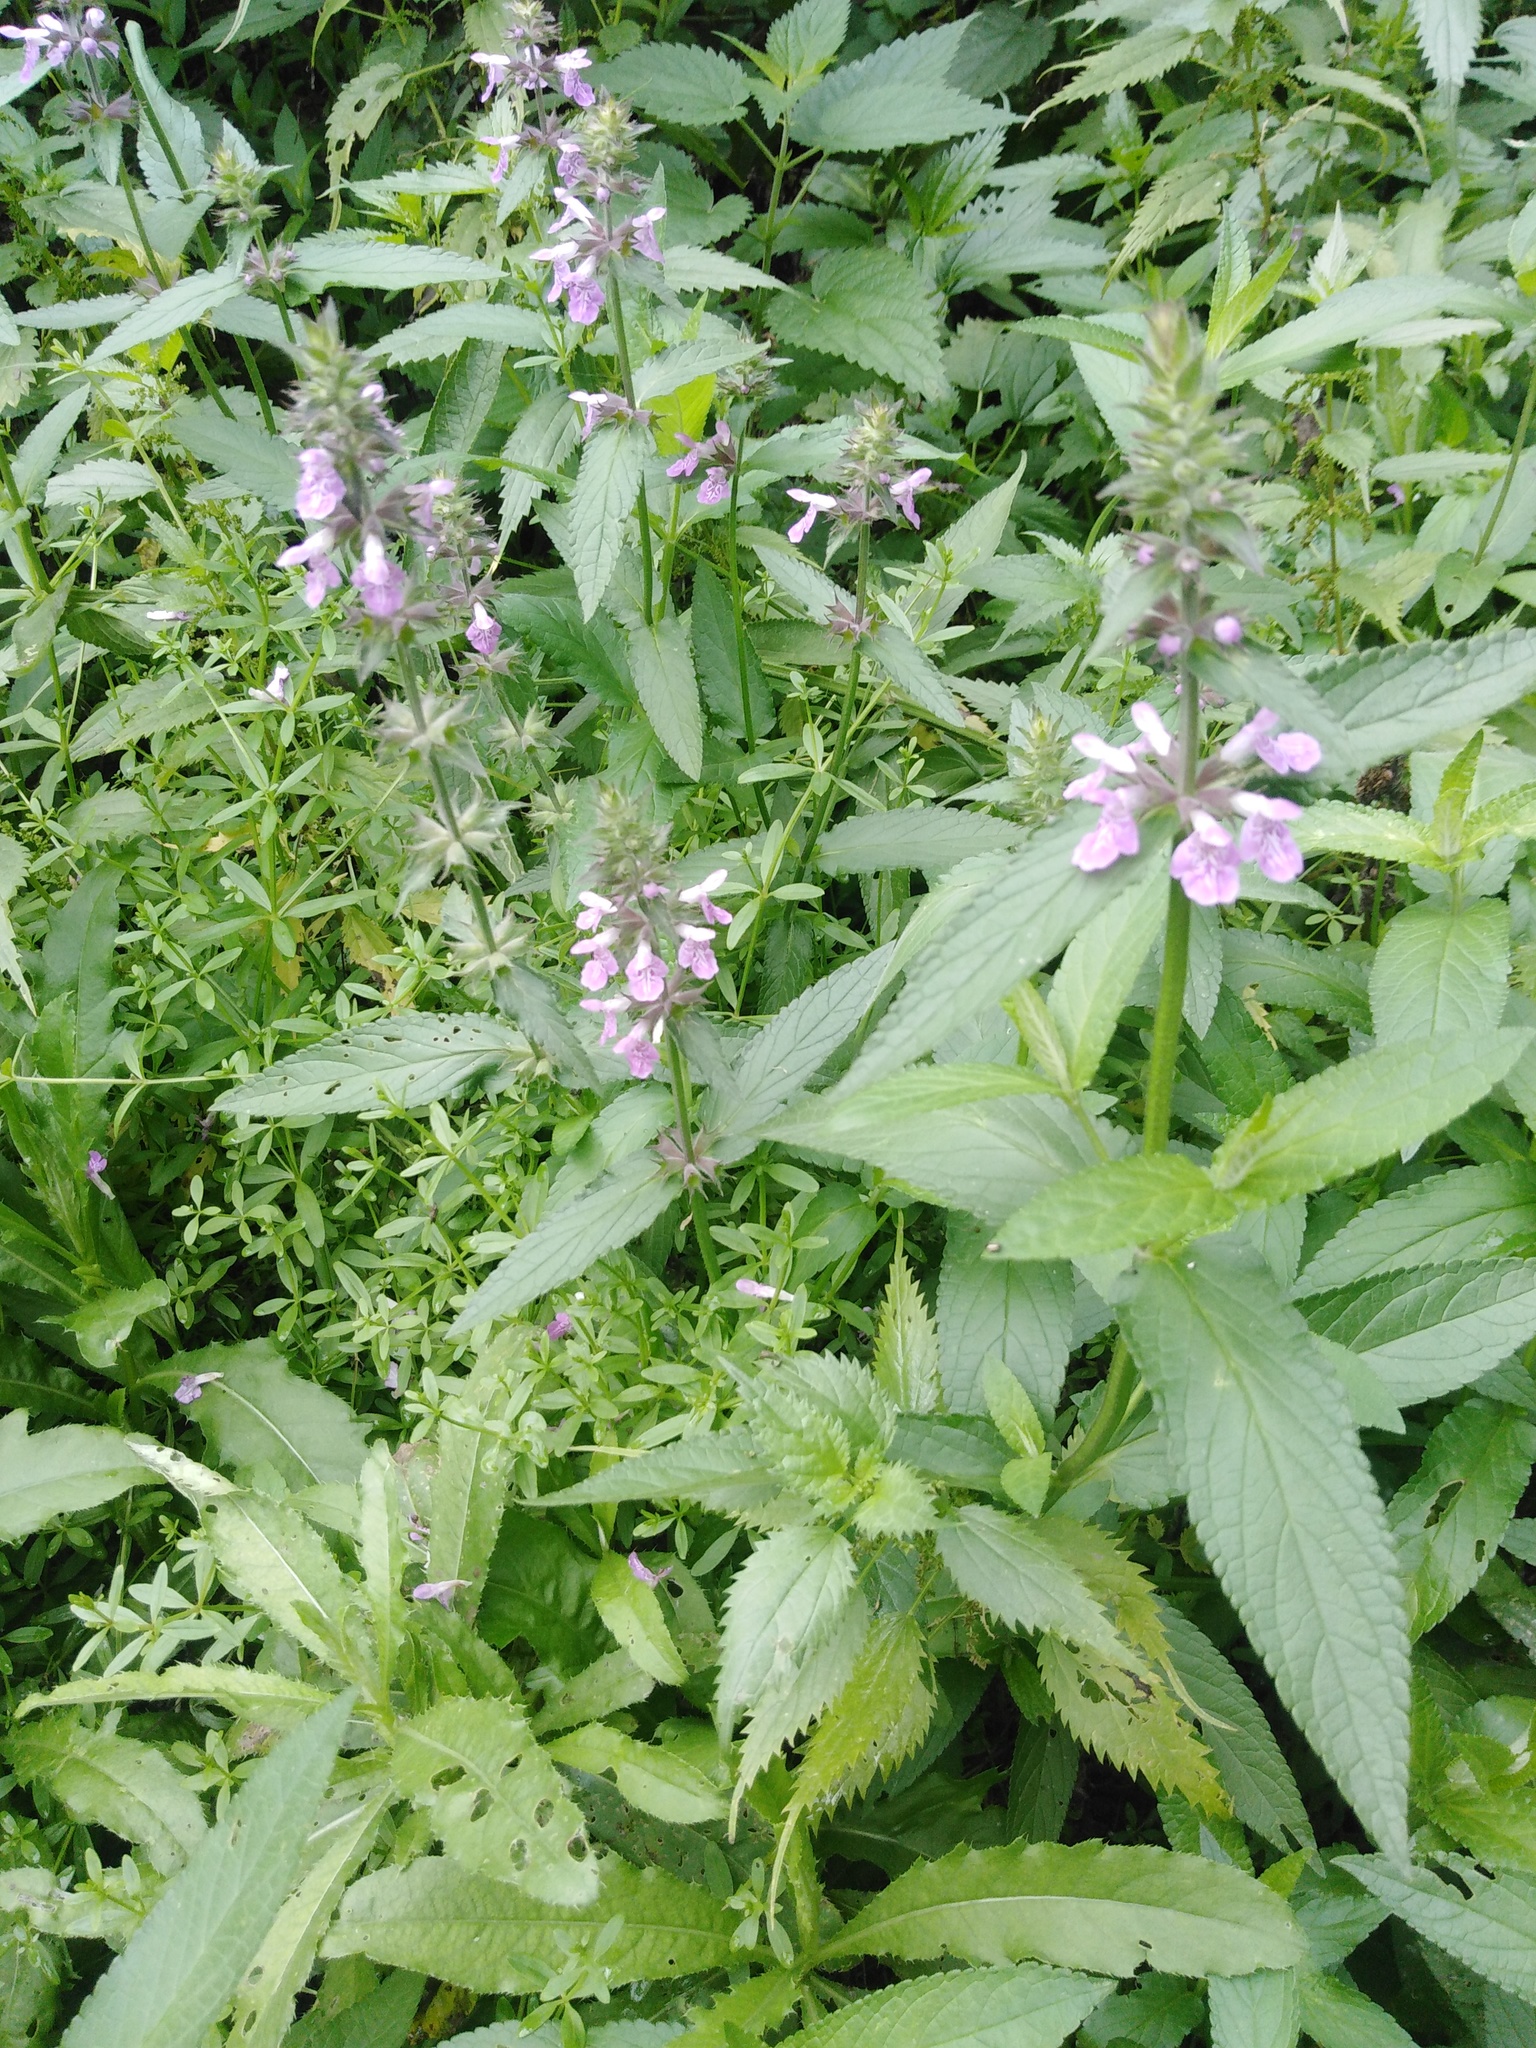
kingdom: Plantae
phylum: Tracheophyta
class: Magnoliopsida
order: Lamiales
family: Lamiaceae
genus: Stachys
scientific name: Stachys palustris
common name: Marsh woundwort
